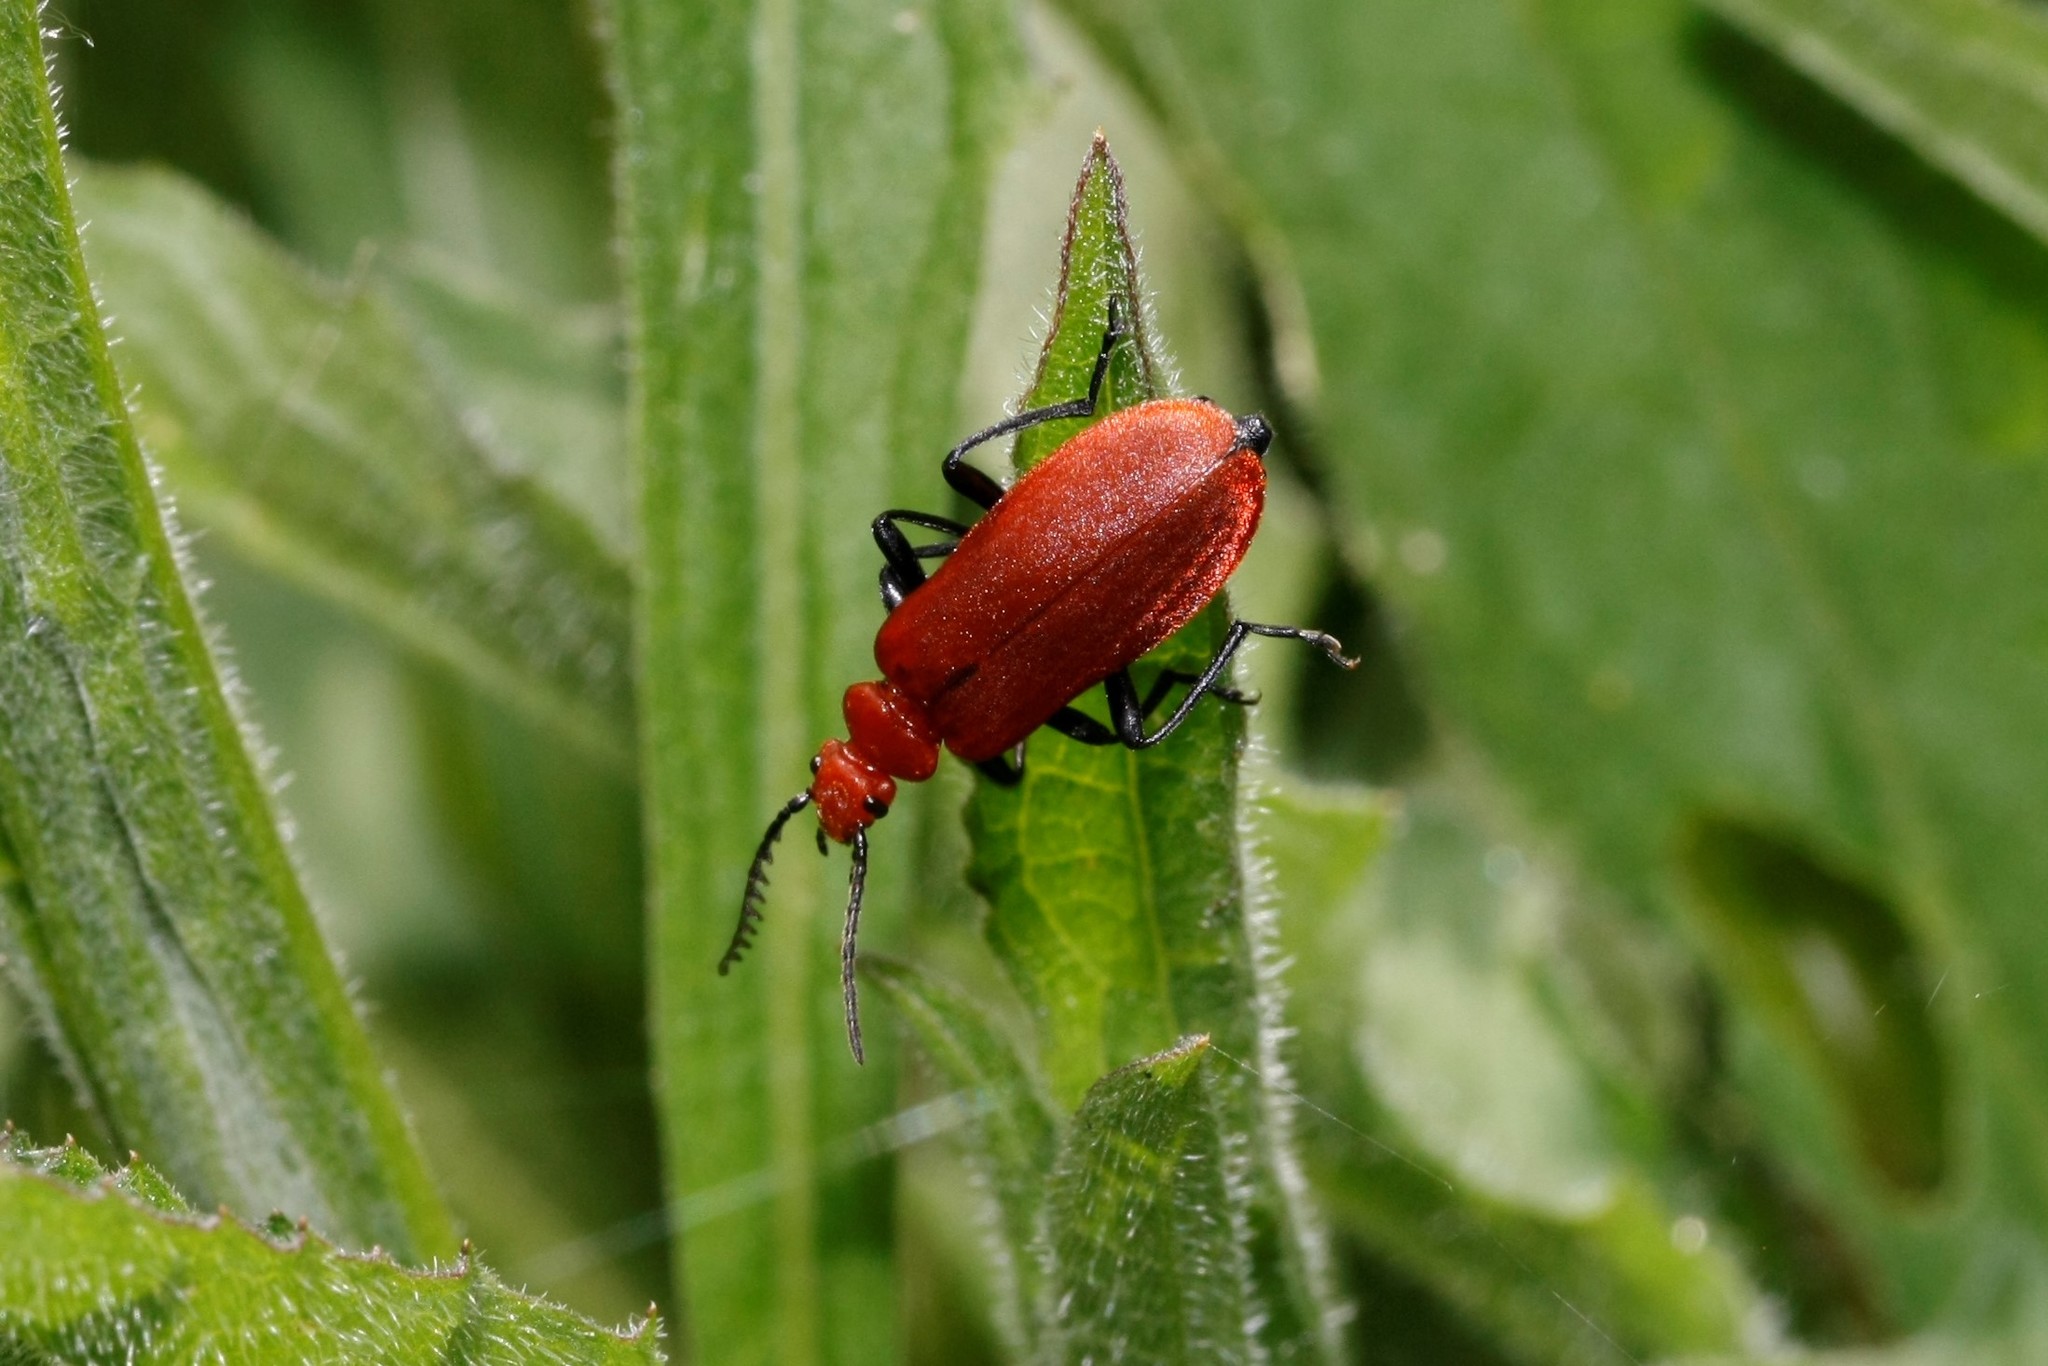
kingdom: Animalia
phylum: Arthropoda
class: Insecta
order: Coleoptera
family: Pyrochroidae
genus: Pyrochroa
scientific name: Pyrochroa serraticornis
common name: Red-headed cardinal beetle
